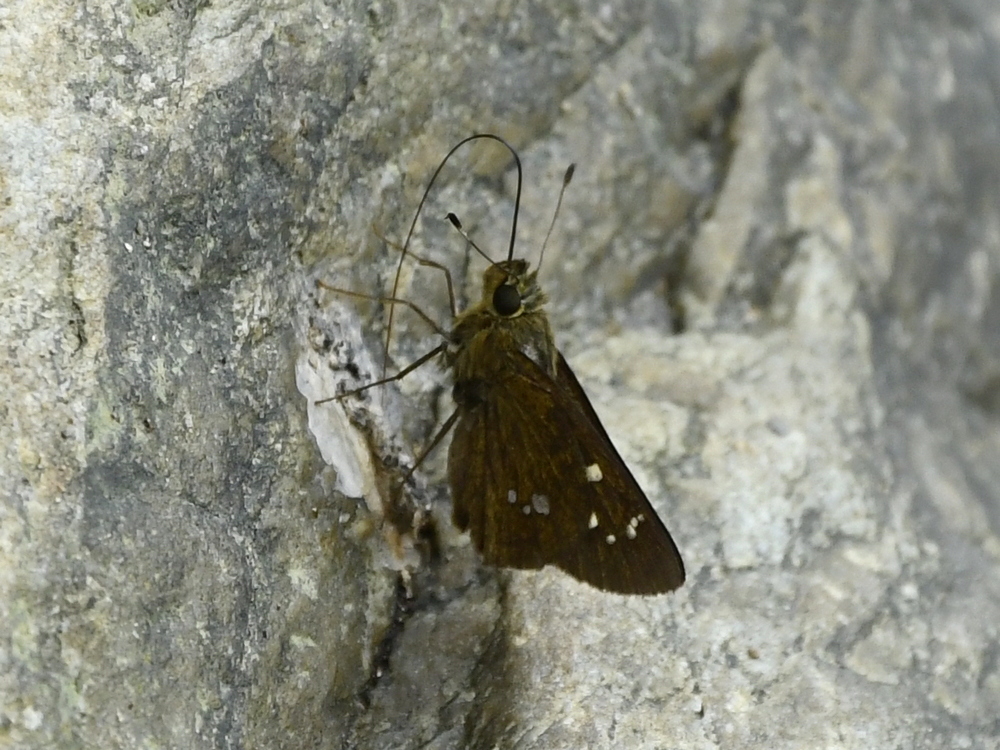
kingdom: Animalia
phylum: Arthropoda
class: Insecta
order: Lepidoptera
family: Hesperiidae
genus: Polytremis
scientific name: Polytremis discreta
